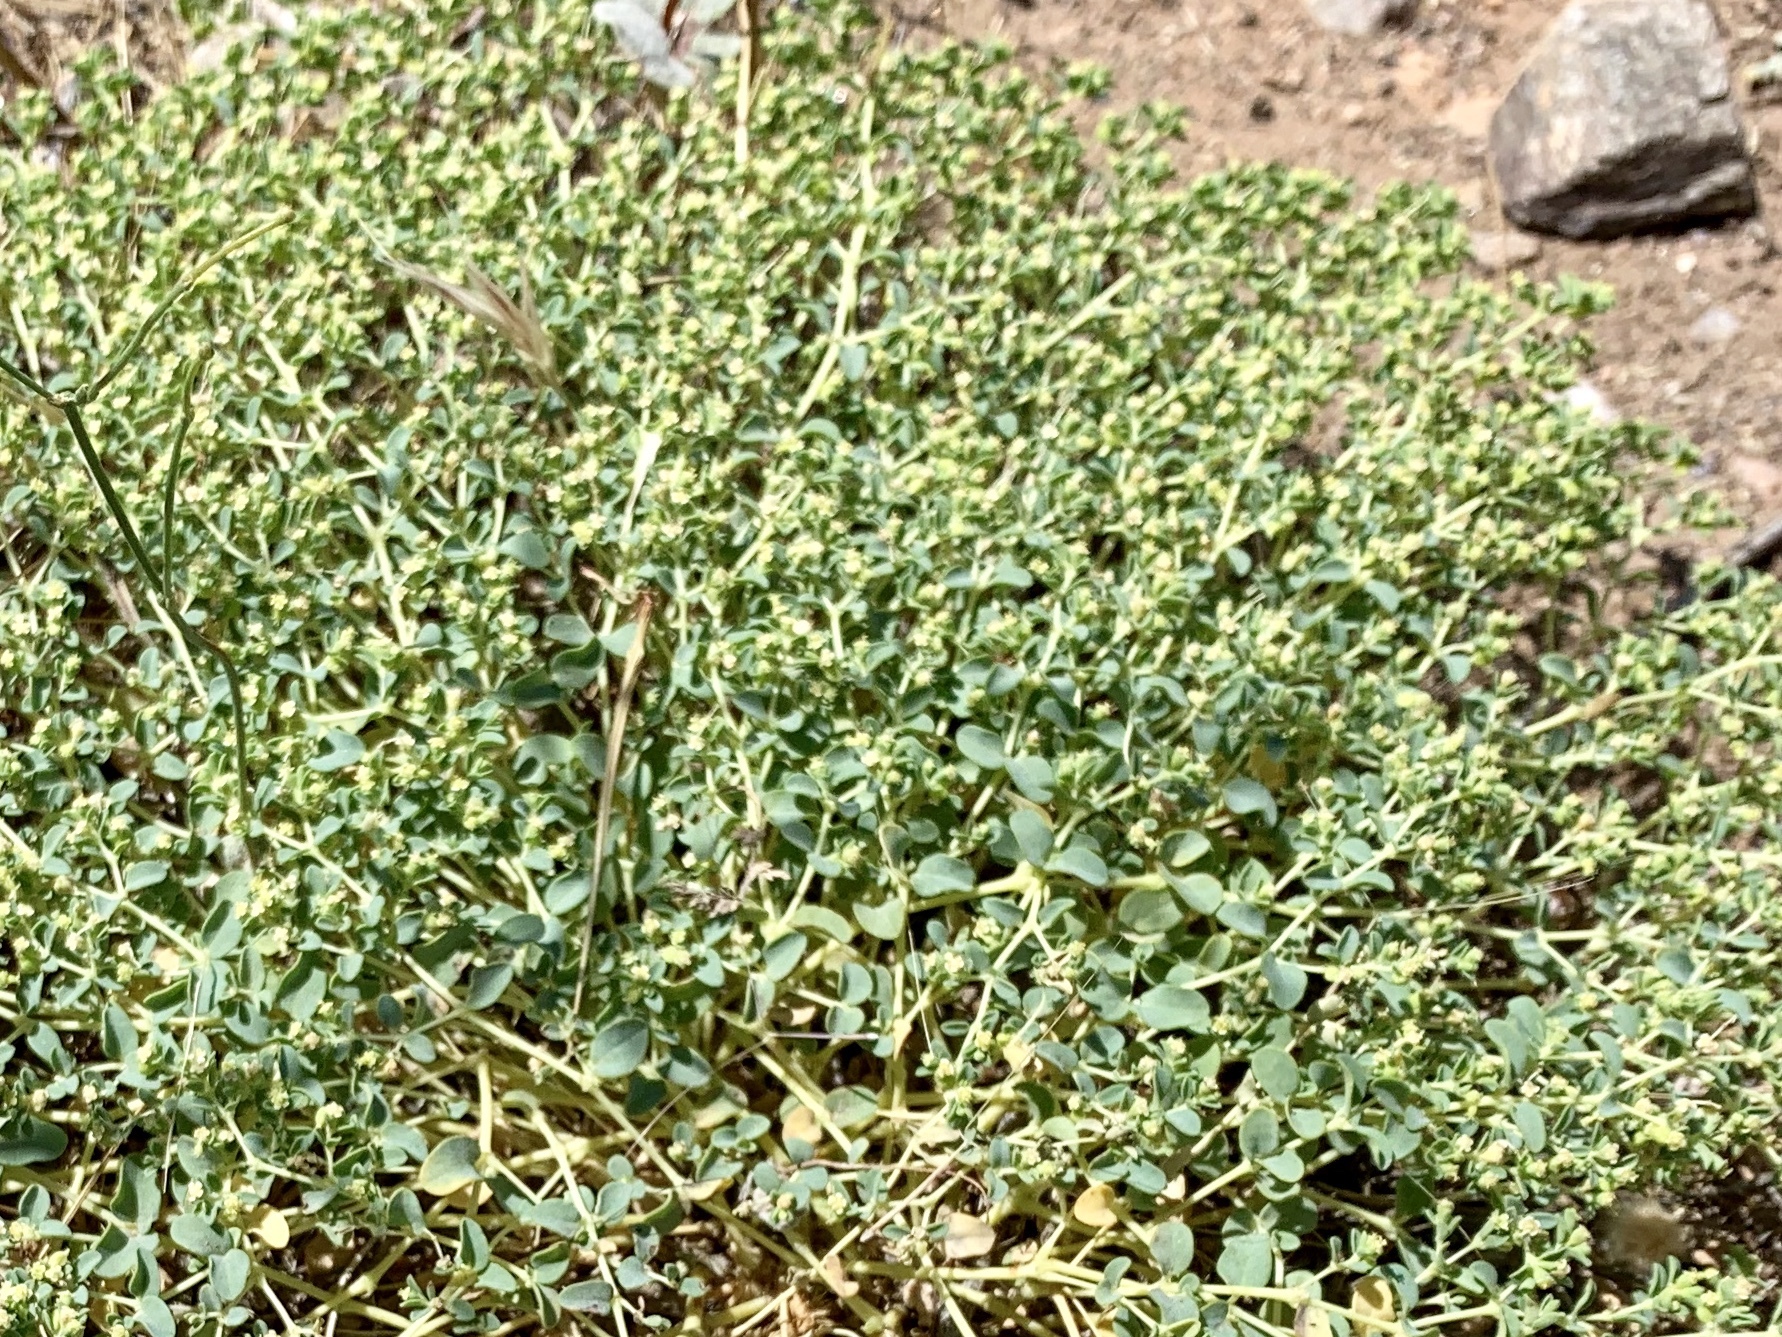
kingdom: Plantae
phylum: Tracheophyta
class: Magnoliopsida
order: Malpighiales
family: Euphorbiaceae
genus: Euphorbia
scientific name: Euphorbia polycarpa
